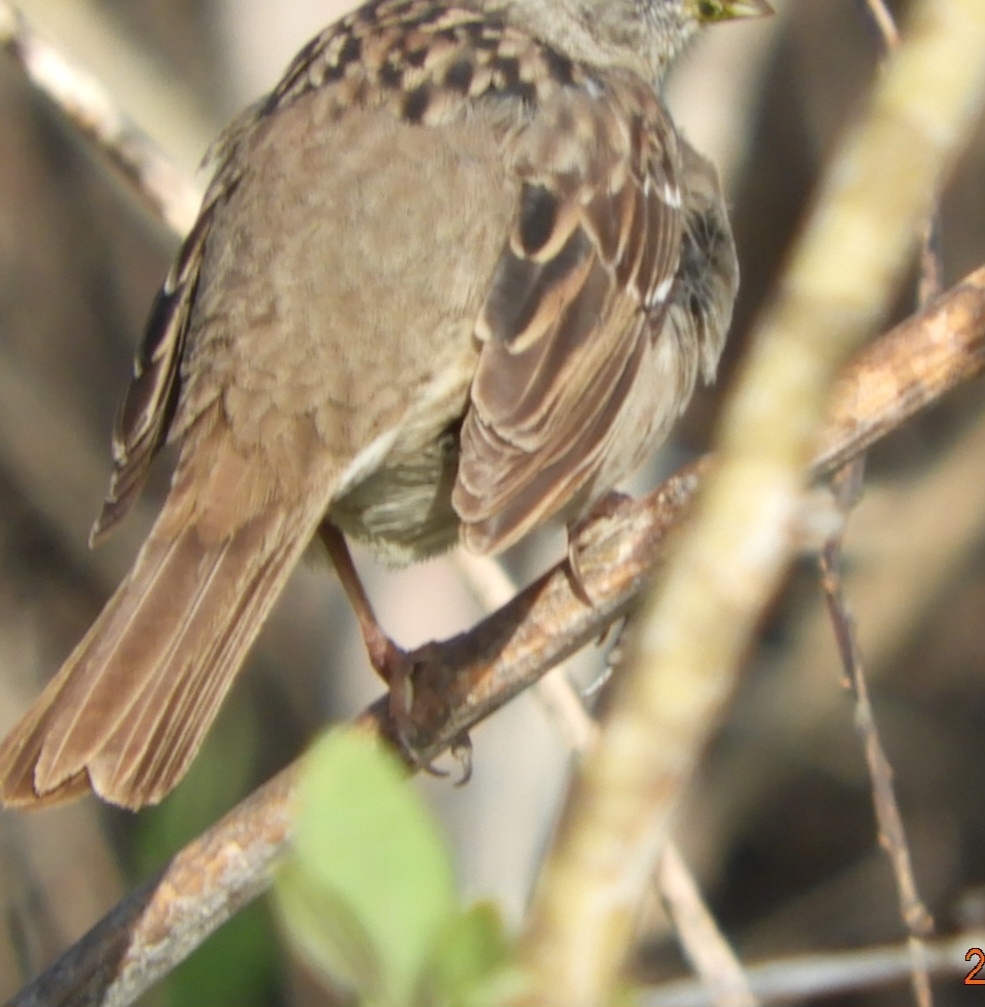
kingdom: Animalia
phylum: Chordata
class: Aves
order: Passeriformes
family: Passerellidae
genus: Zonotrichia
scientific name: Zonotrichia atricapilla
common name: Golden-crowned sparrow
